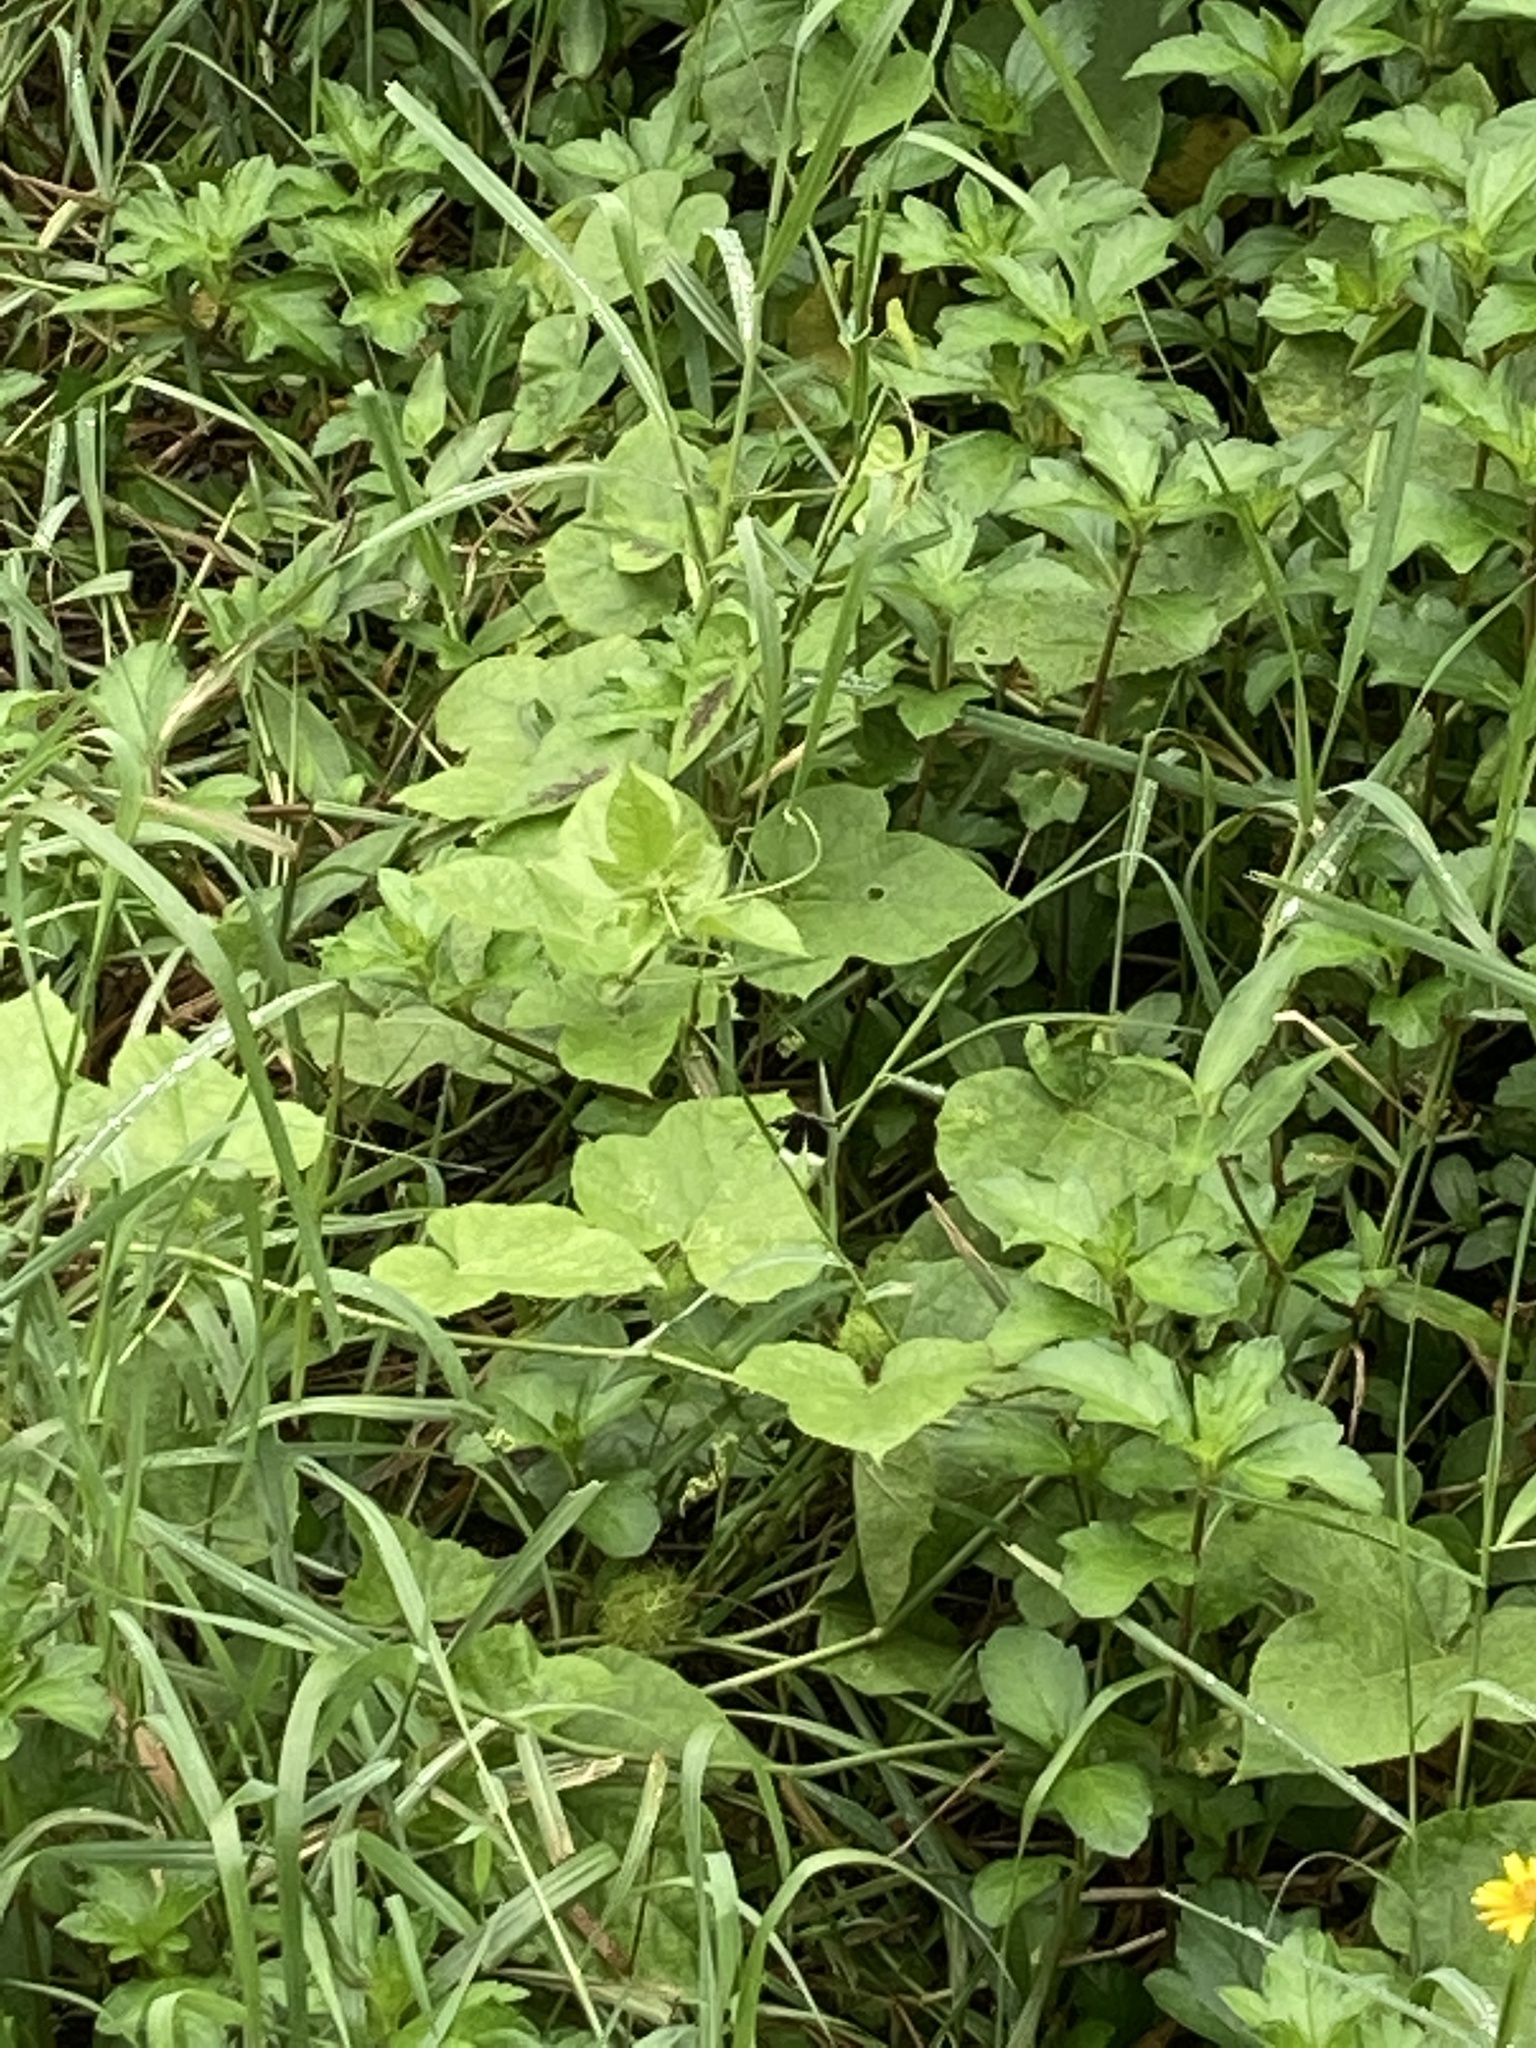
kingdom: Animalia
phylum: Arthropoda
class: Insecta
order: Odonata
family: Libellulidae
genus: Neurothemis
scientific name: Neurothemis tullia
